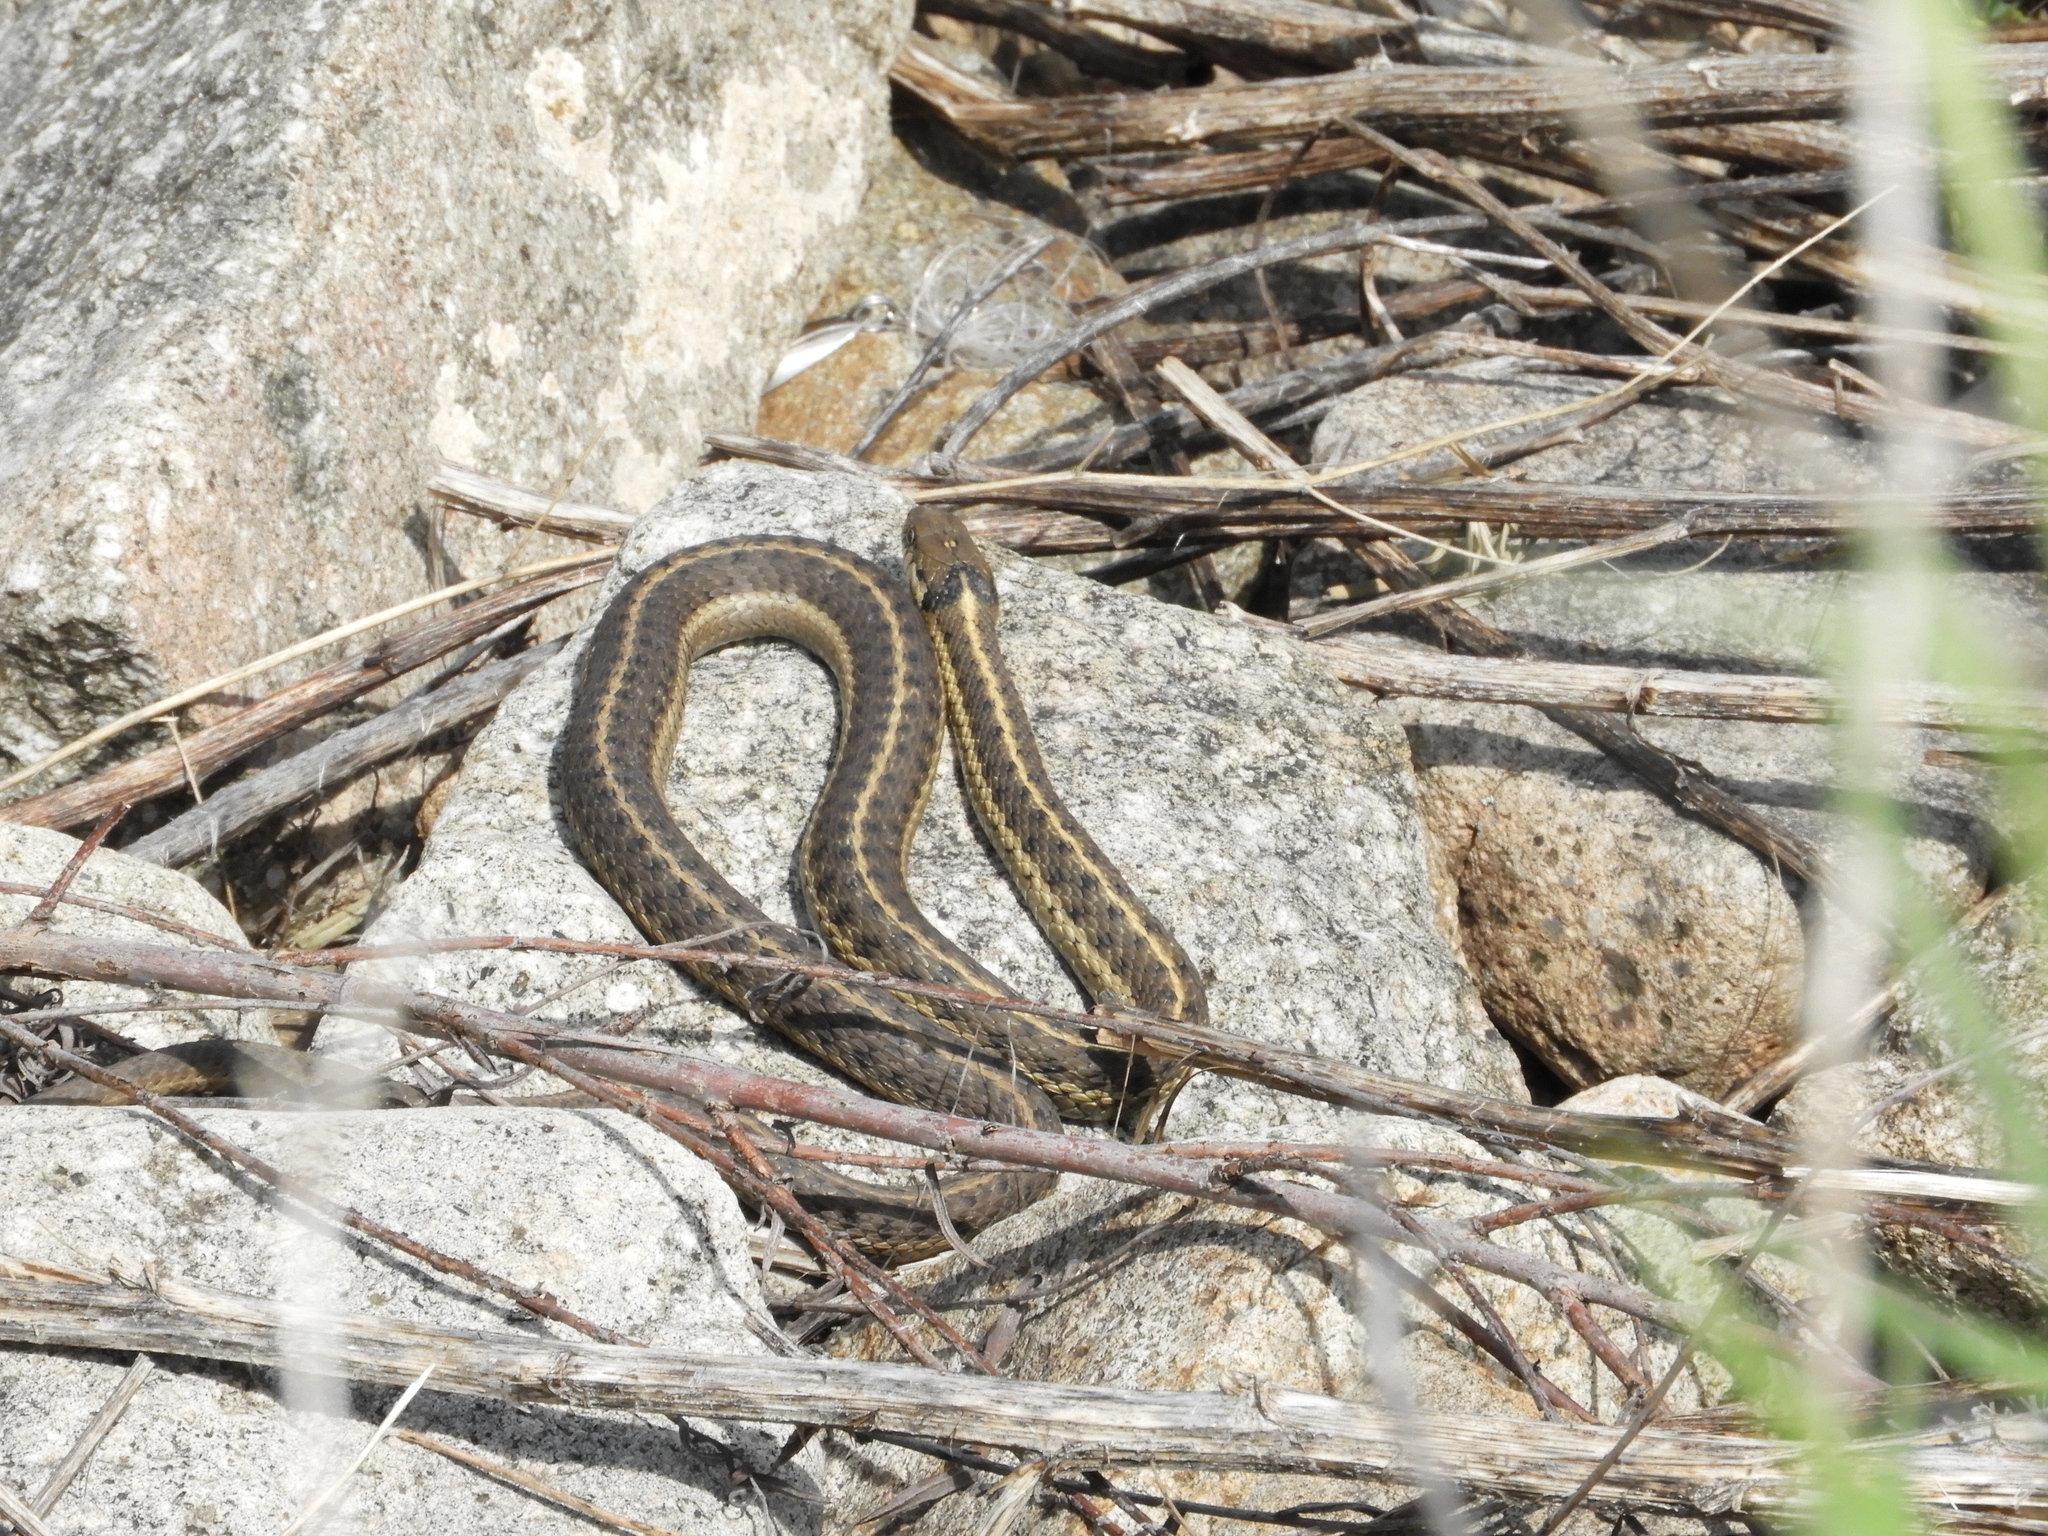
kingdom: Animalia
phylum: Chordata
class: Squamata
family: Colubridae
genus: Thamnophis
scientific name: Thamnophis elegans
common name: Western terrestrial garter snake
